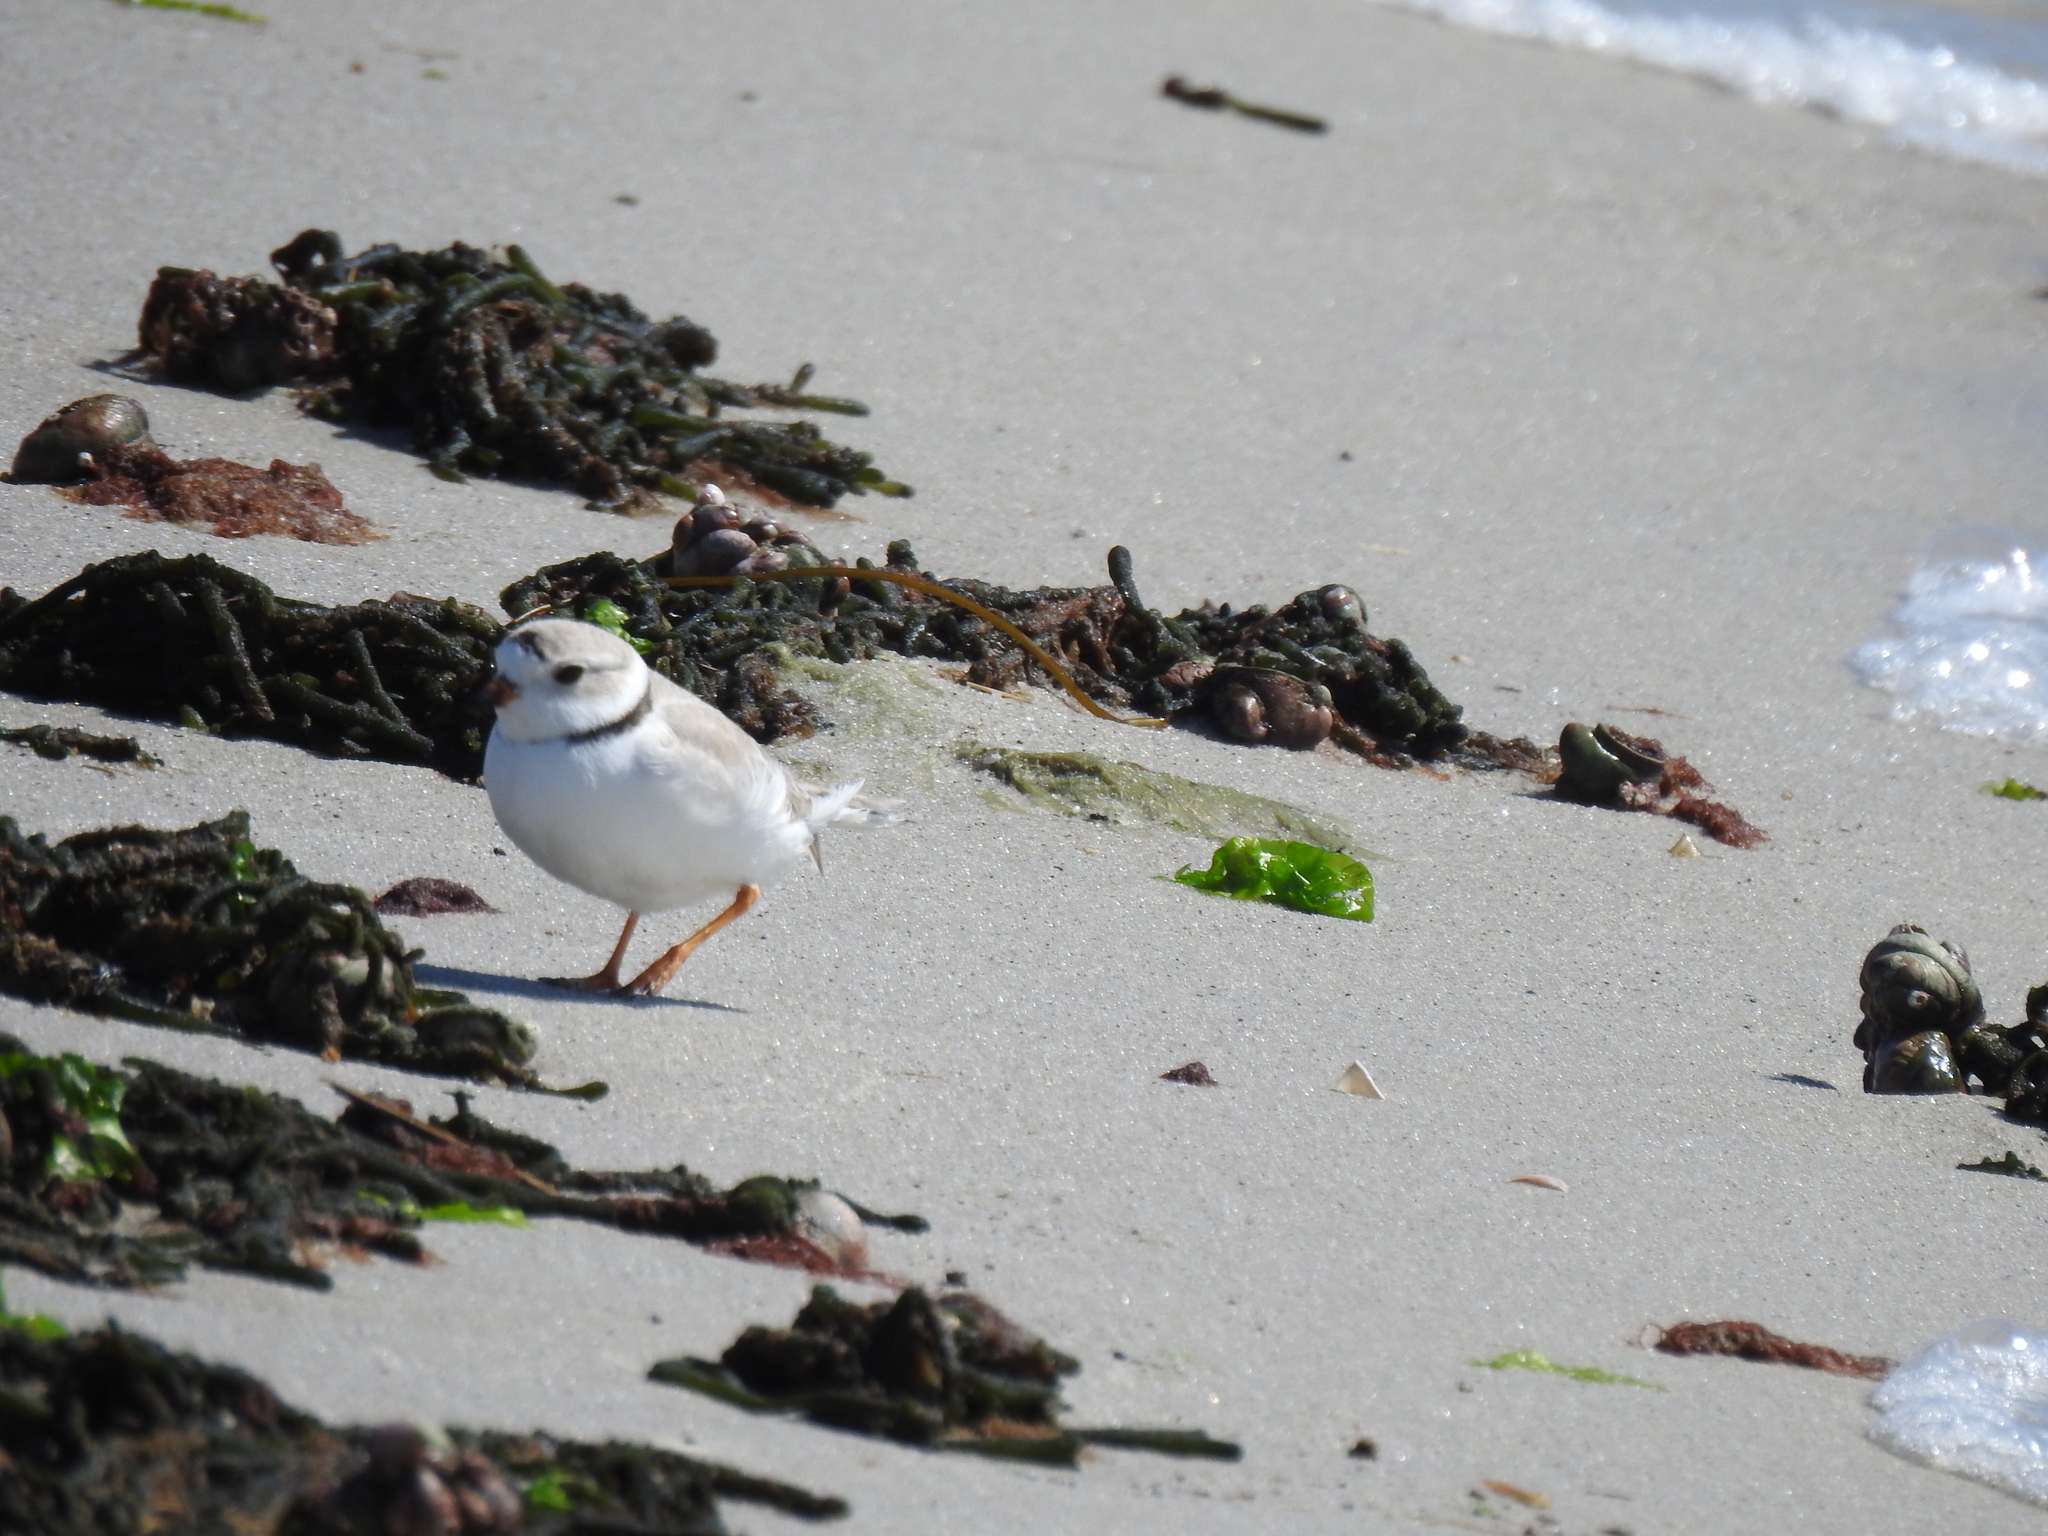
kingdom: Animalia
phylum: Chordata
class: Aves
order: Charadriiformes
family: Charadriidae
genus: Charadrius
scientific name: Charadrius melodus
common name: Piping plover
